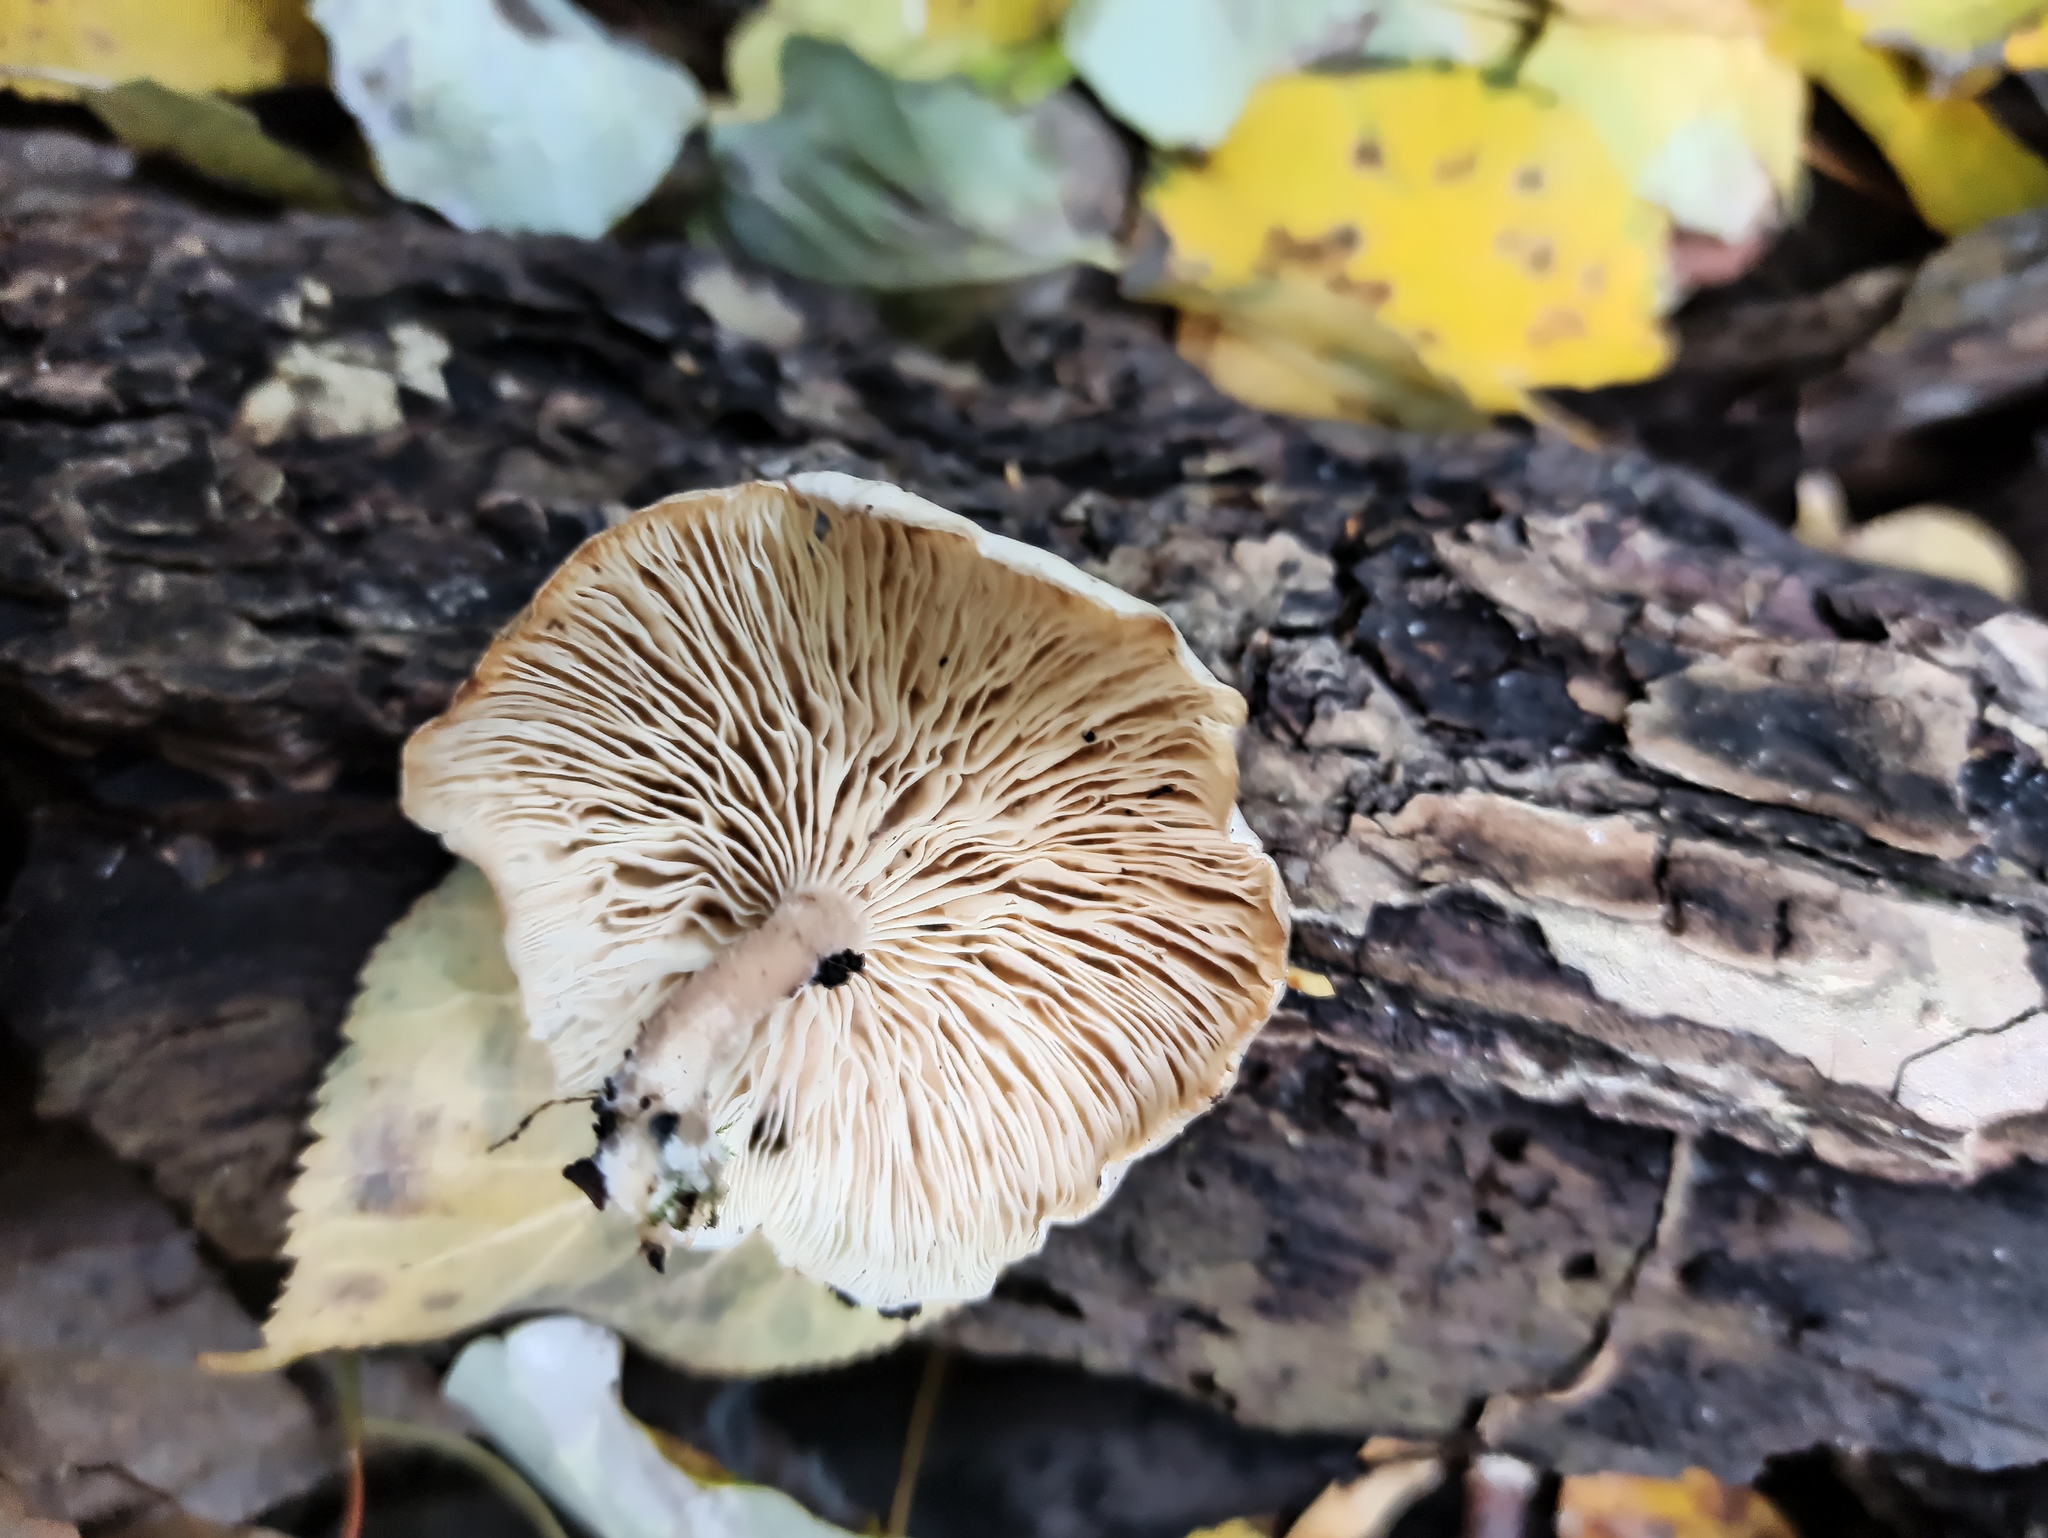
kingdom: Fungi
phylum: Basidiomycota
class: Agaricomycetes
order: Agaricales
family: Tricholomataceae
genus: Clitocybe
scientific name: Clitocybe truncicola
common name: Trunk funnel
